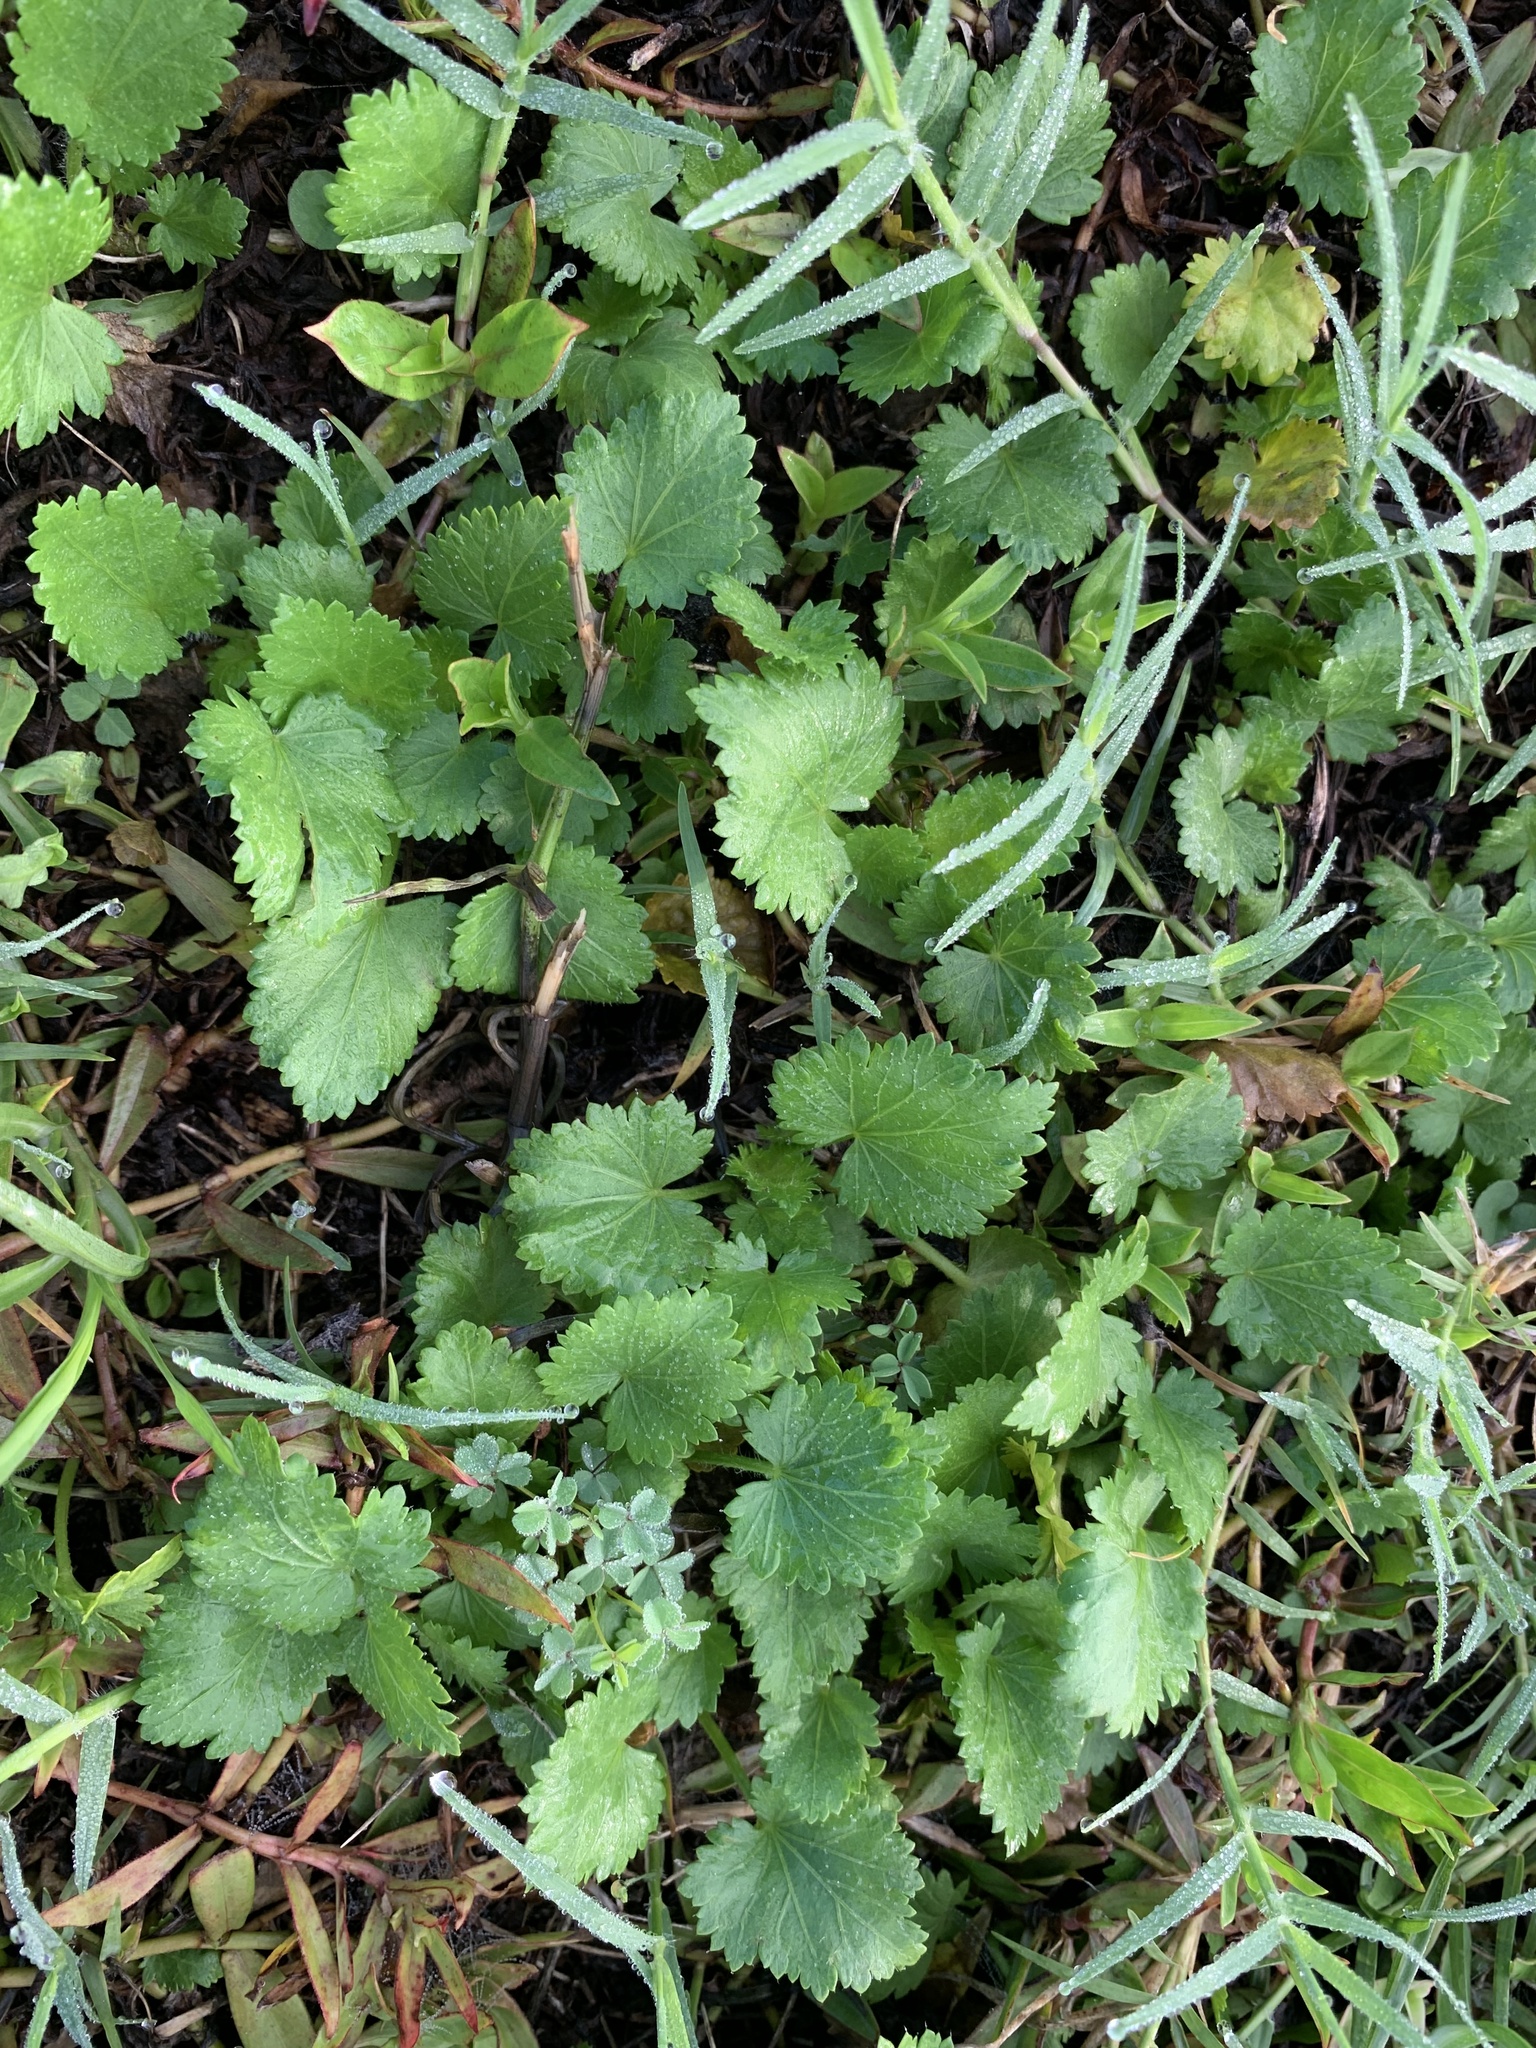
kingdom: Plantae
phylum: Tracheophyta
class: Magnoliopsida
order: Malvales
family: Malvaceae
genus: Modiola
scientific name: Modiola caroliniana
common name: Carolina bristlemallow
